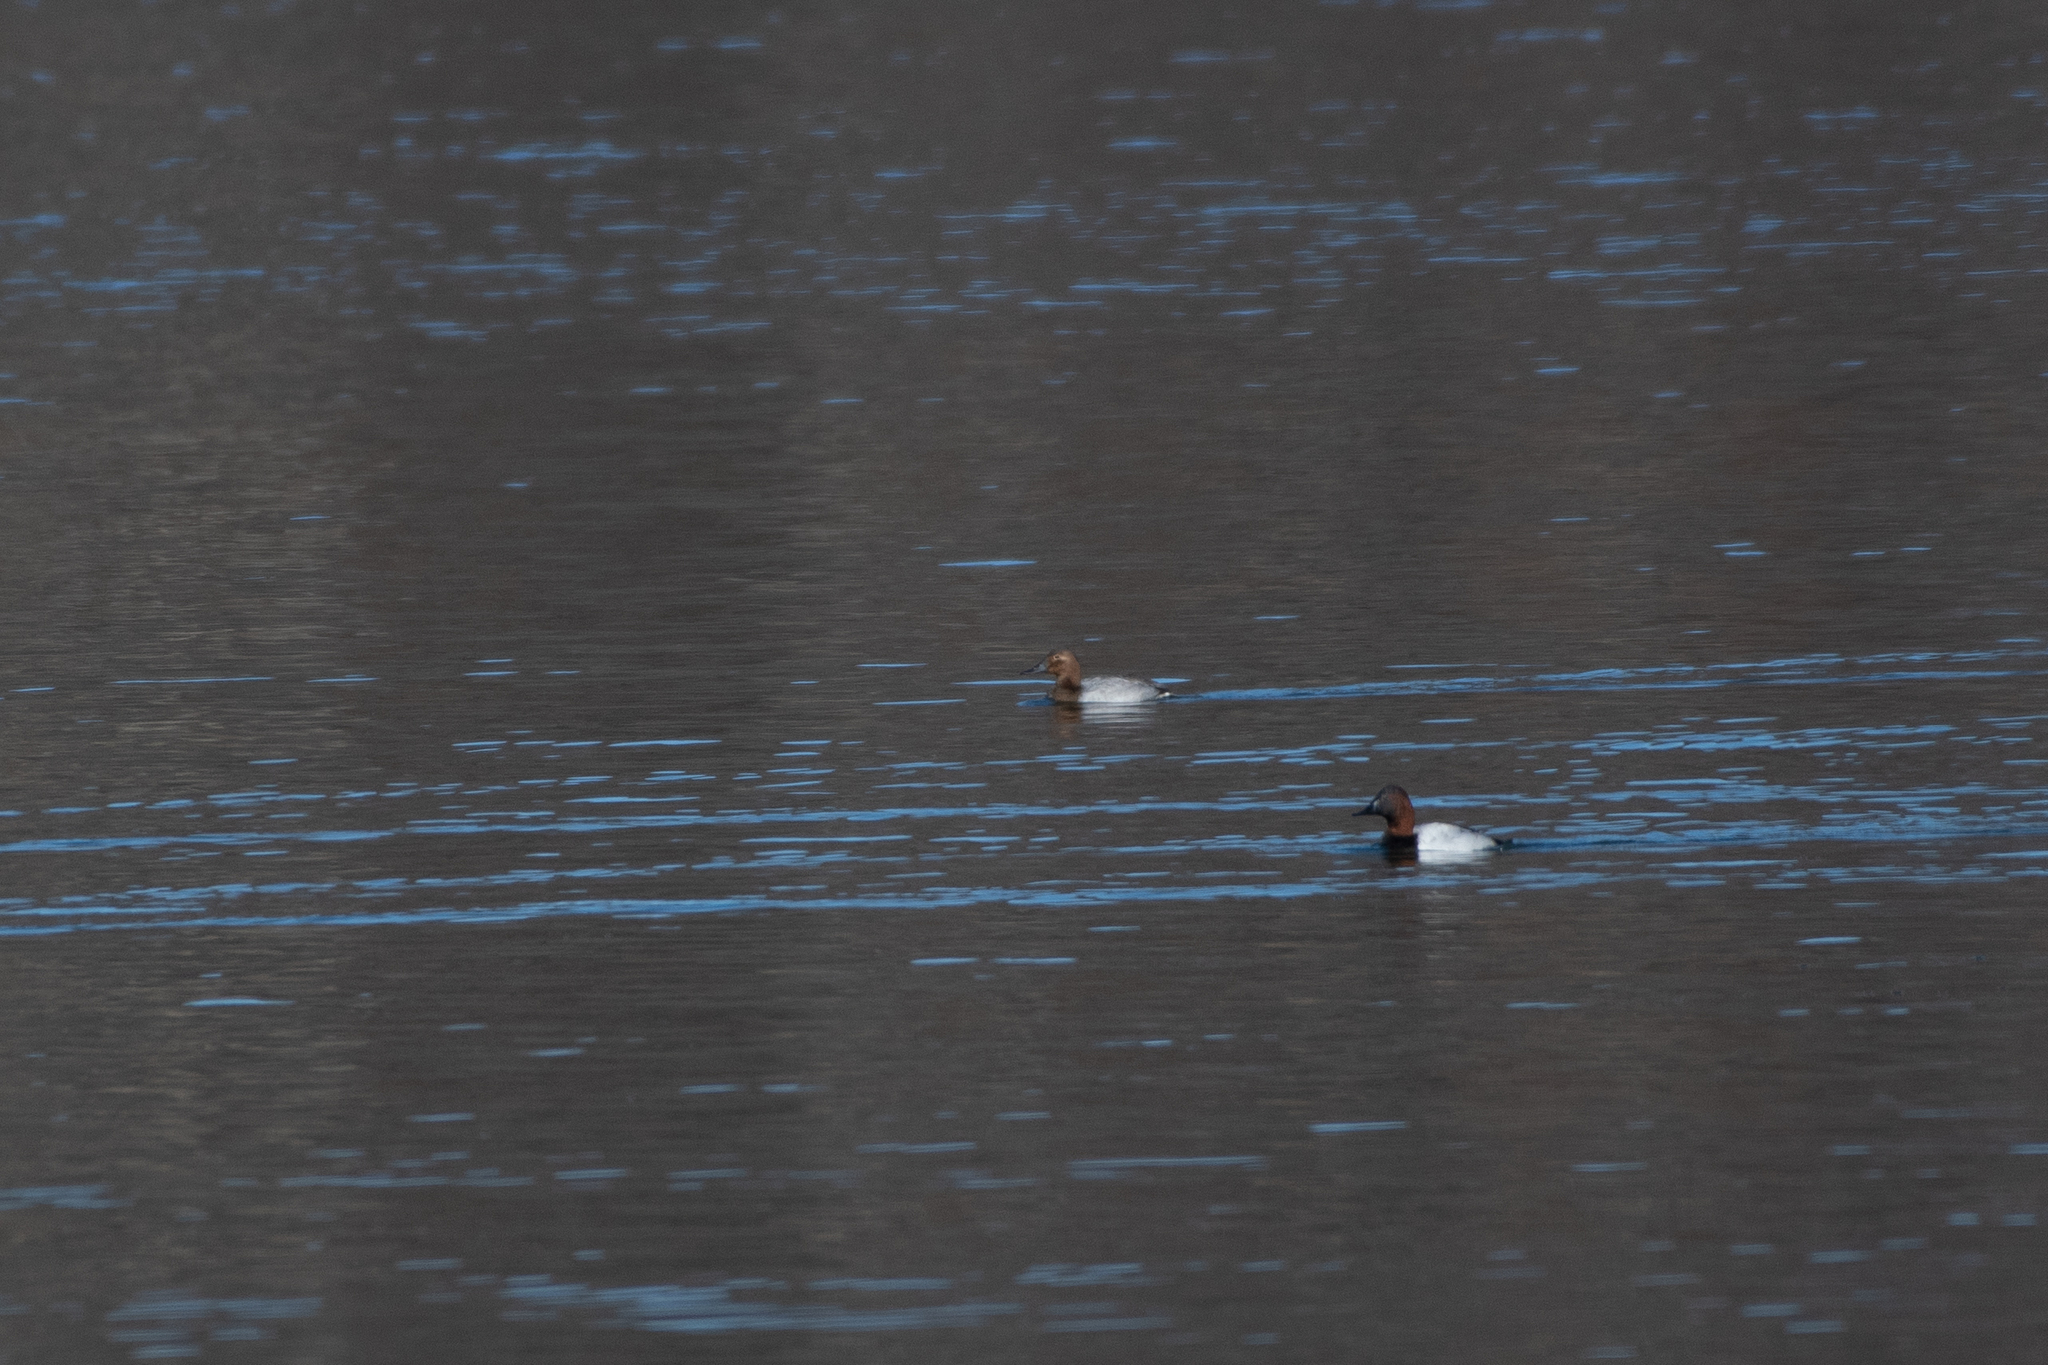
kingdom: Animalia
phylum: Chordata
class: Aves
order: Anseriformes
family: Anatidae
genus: Aythya
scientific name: Aythya valisineria
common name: Canvasback
